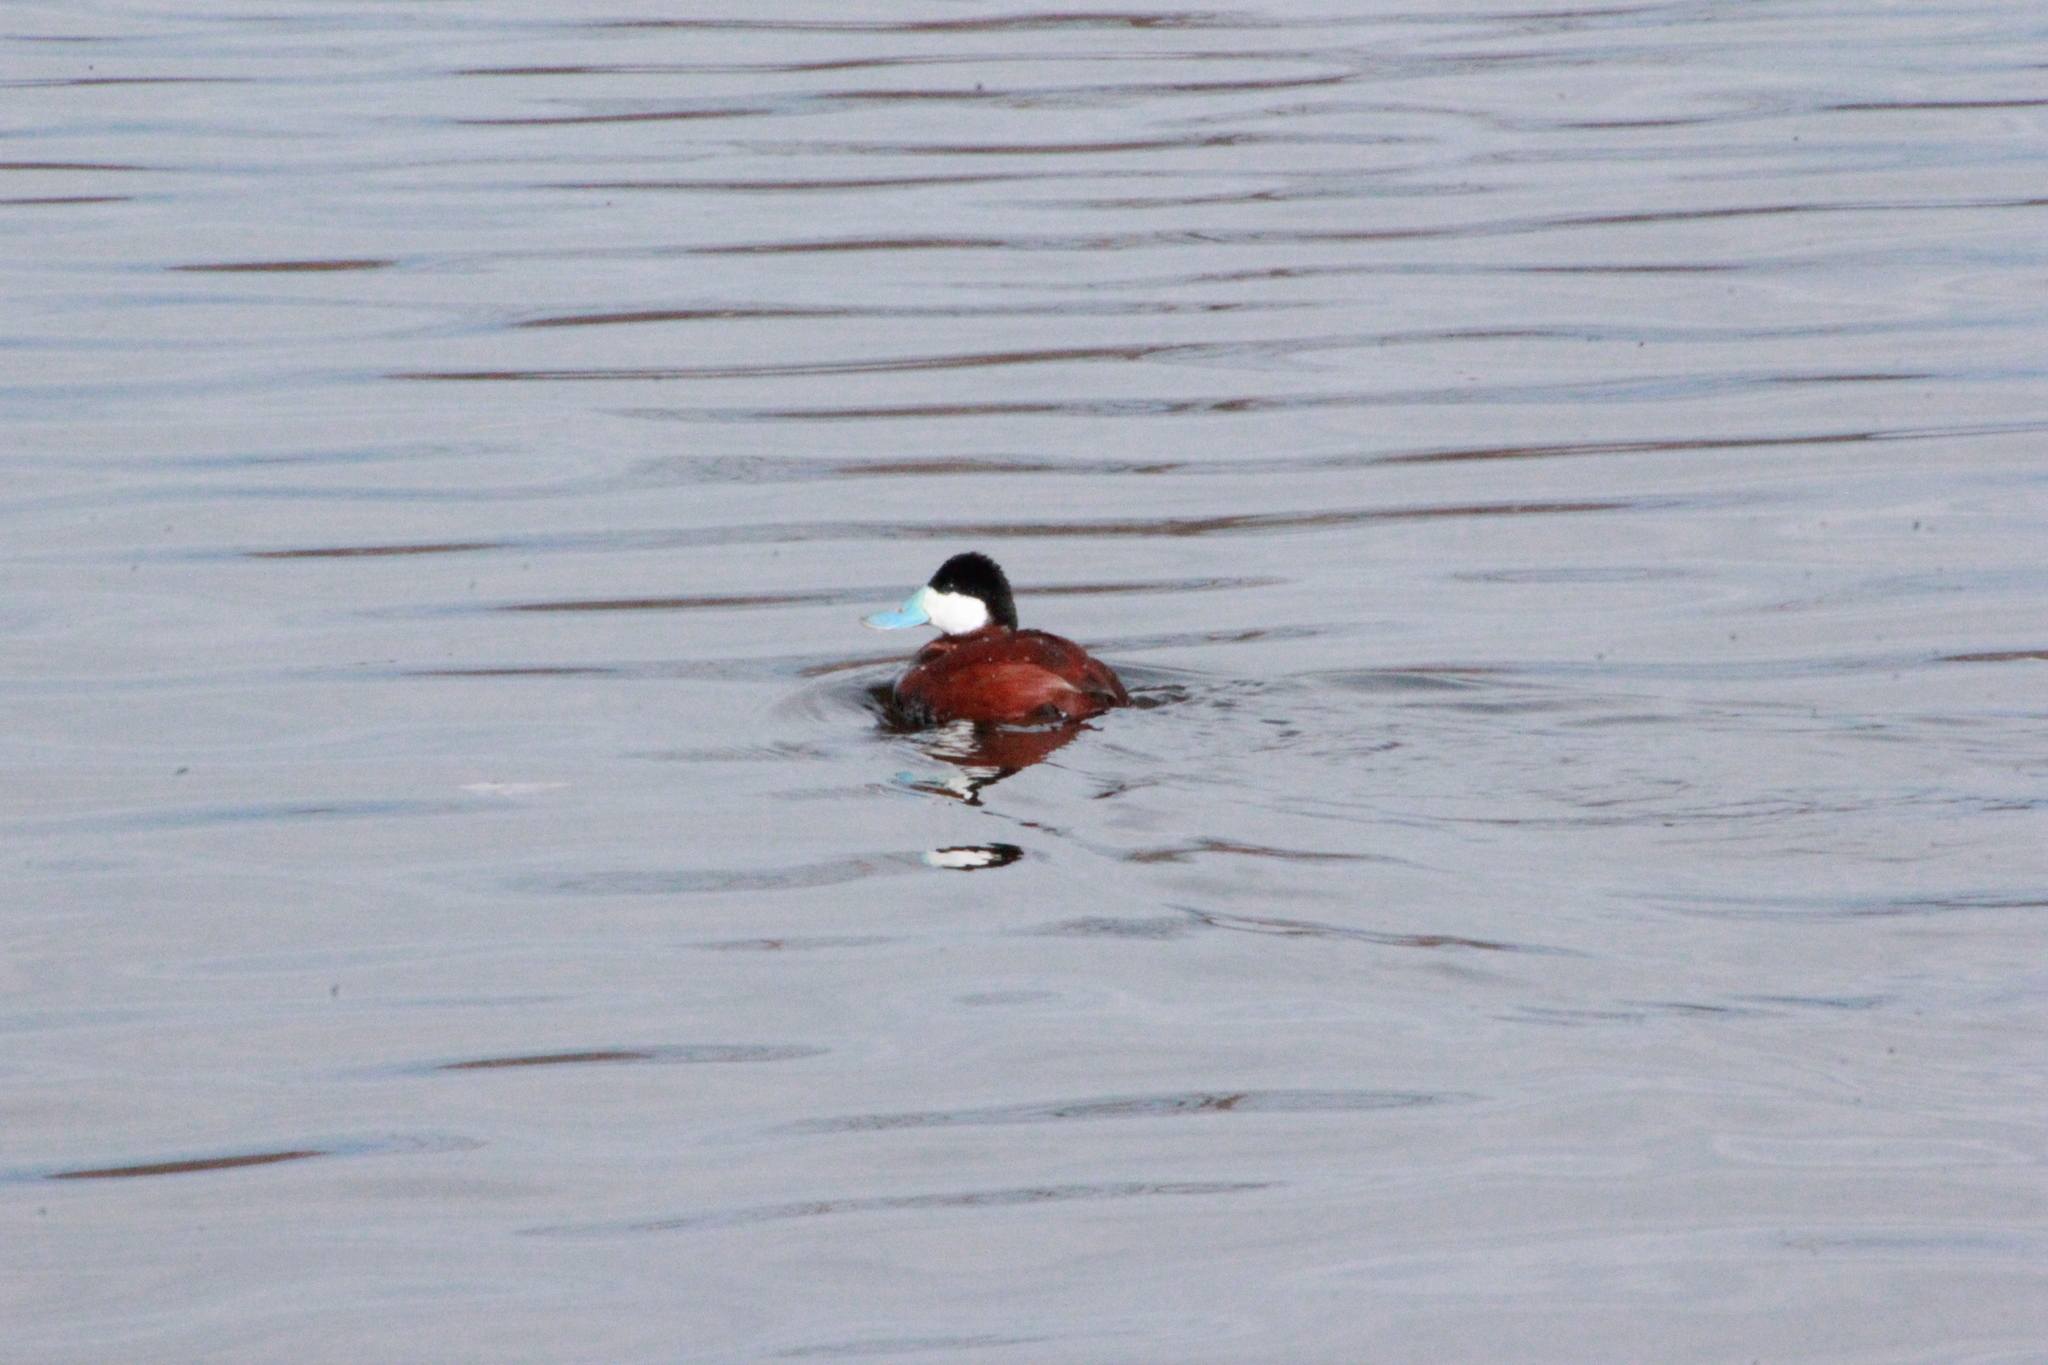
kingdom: Animalia
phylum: Chordata
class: Aves
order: Anseriformes
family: Anatidae
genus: Oxyura
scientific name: Oxyura jamaicensis
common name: Ruddy duck
